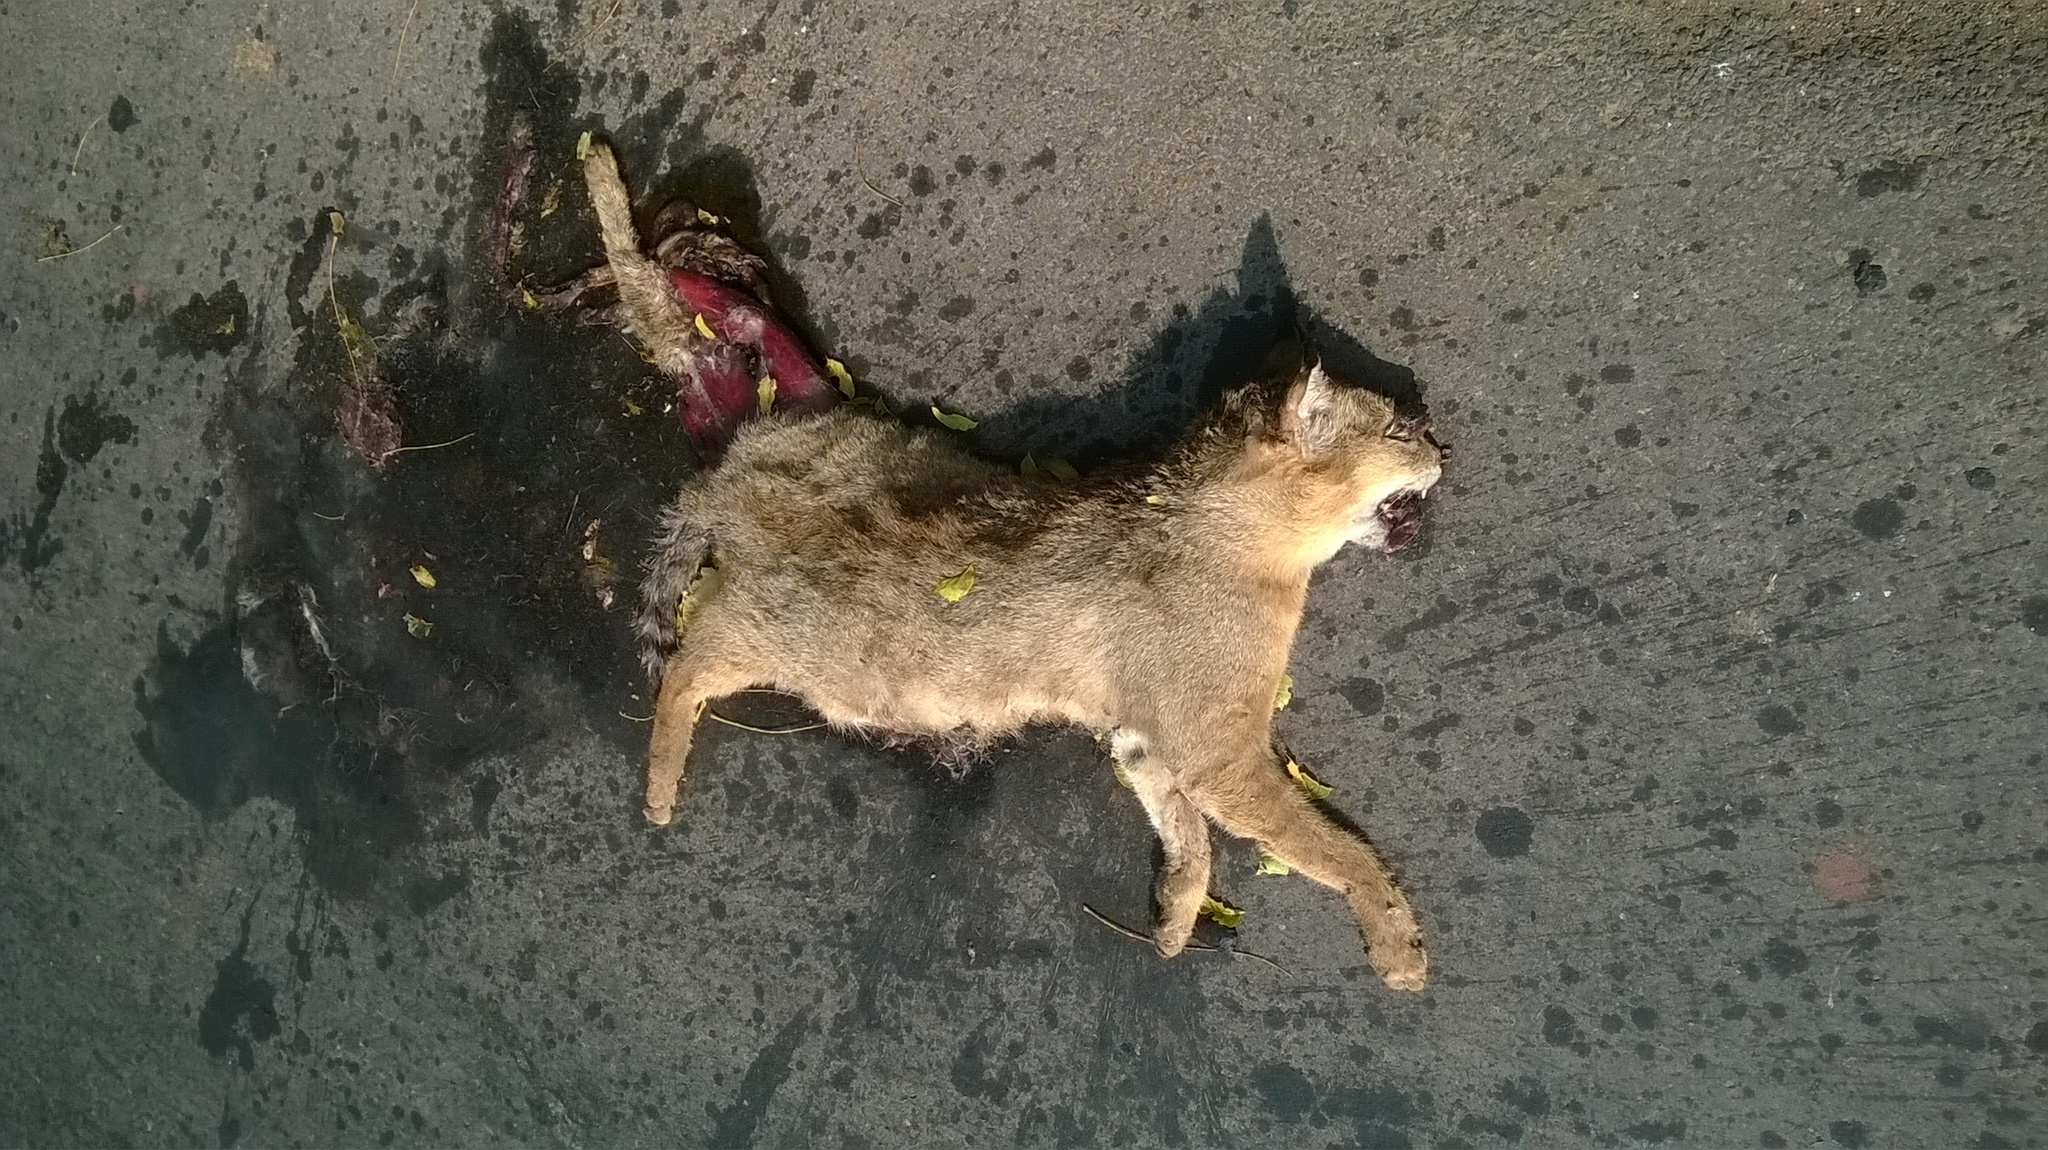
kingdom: Animalia
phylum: Chordata
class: Mammalia
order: Carnivora
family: Felidae
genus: Felis
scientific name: Felis chaus
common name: Jungle cat
